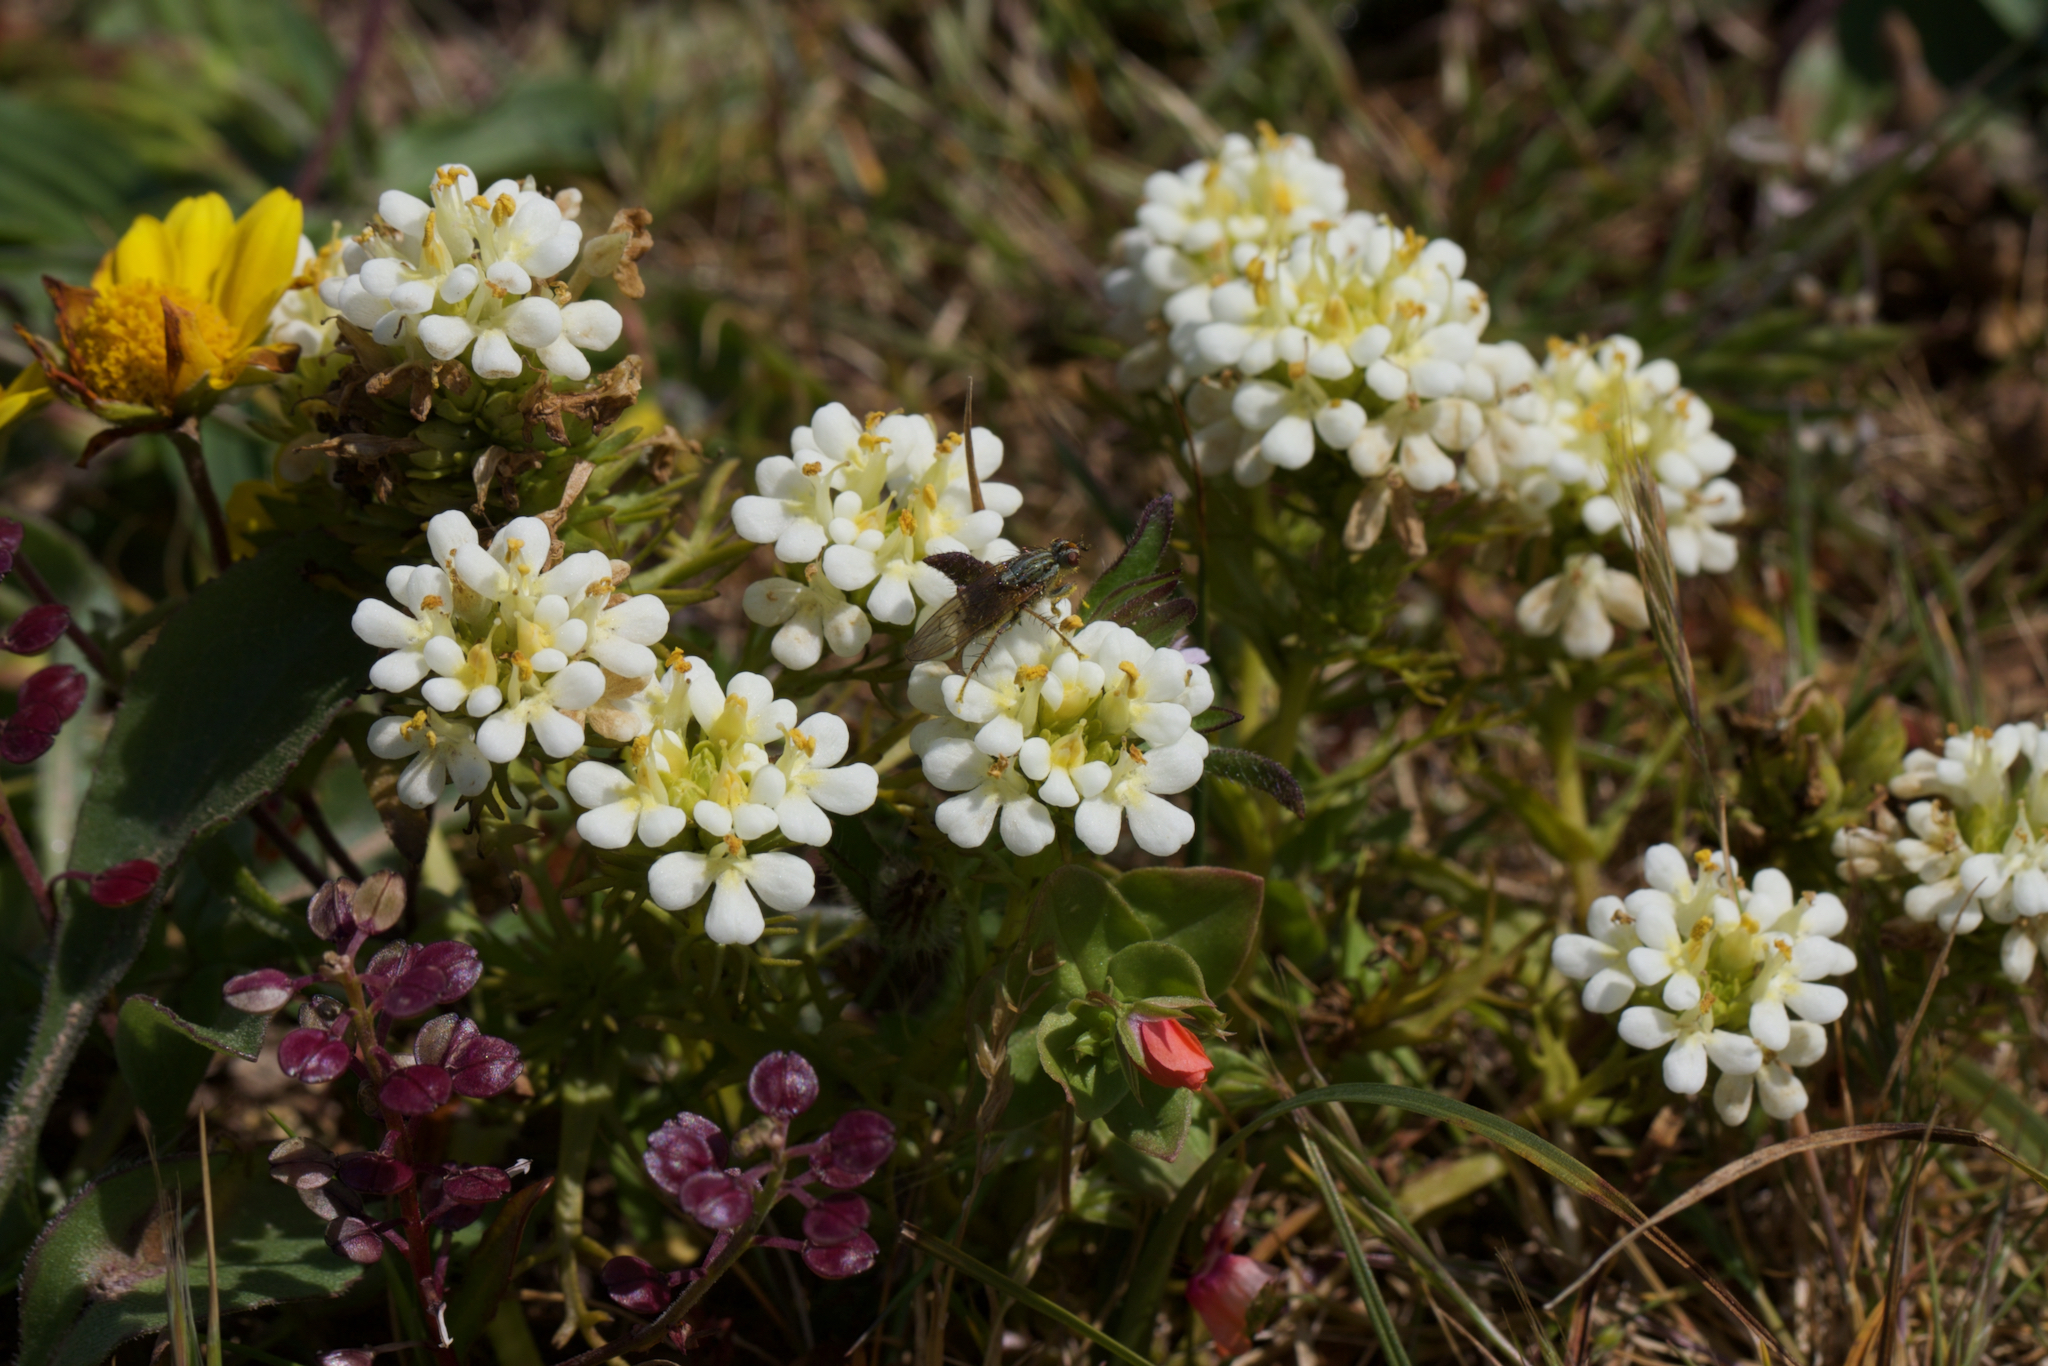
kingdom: Plantae
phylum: Tracheophyta
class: Magnoliopsida
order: Lamiales
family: Orobanchaceae
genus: Triphysaria
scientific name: Triphysaria floribunda
